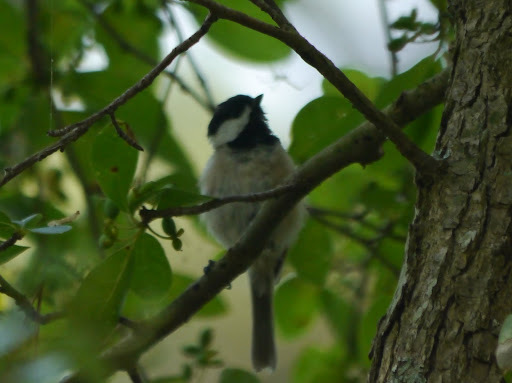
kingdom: Animalia
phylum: Chordata
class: Aves
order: Passeriformes
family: Paridae
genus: Poecile
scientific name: Poecile carolinensis
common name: Carolina chickadee
